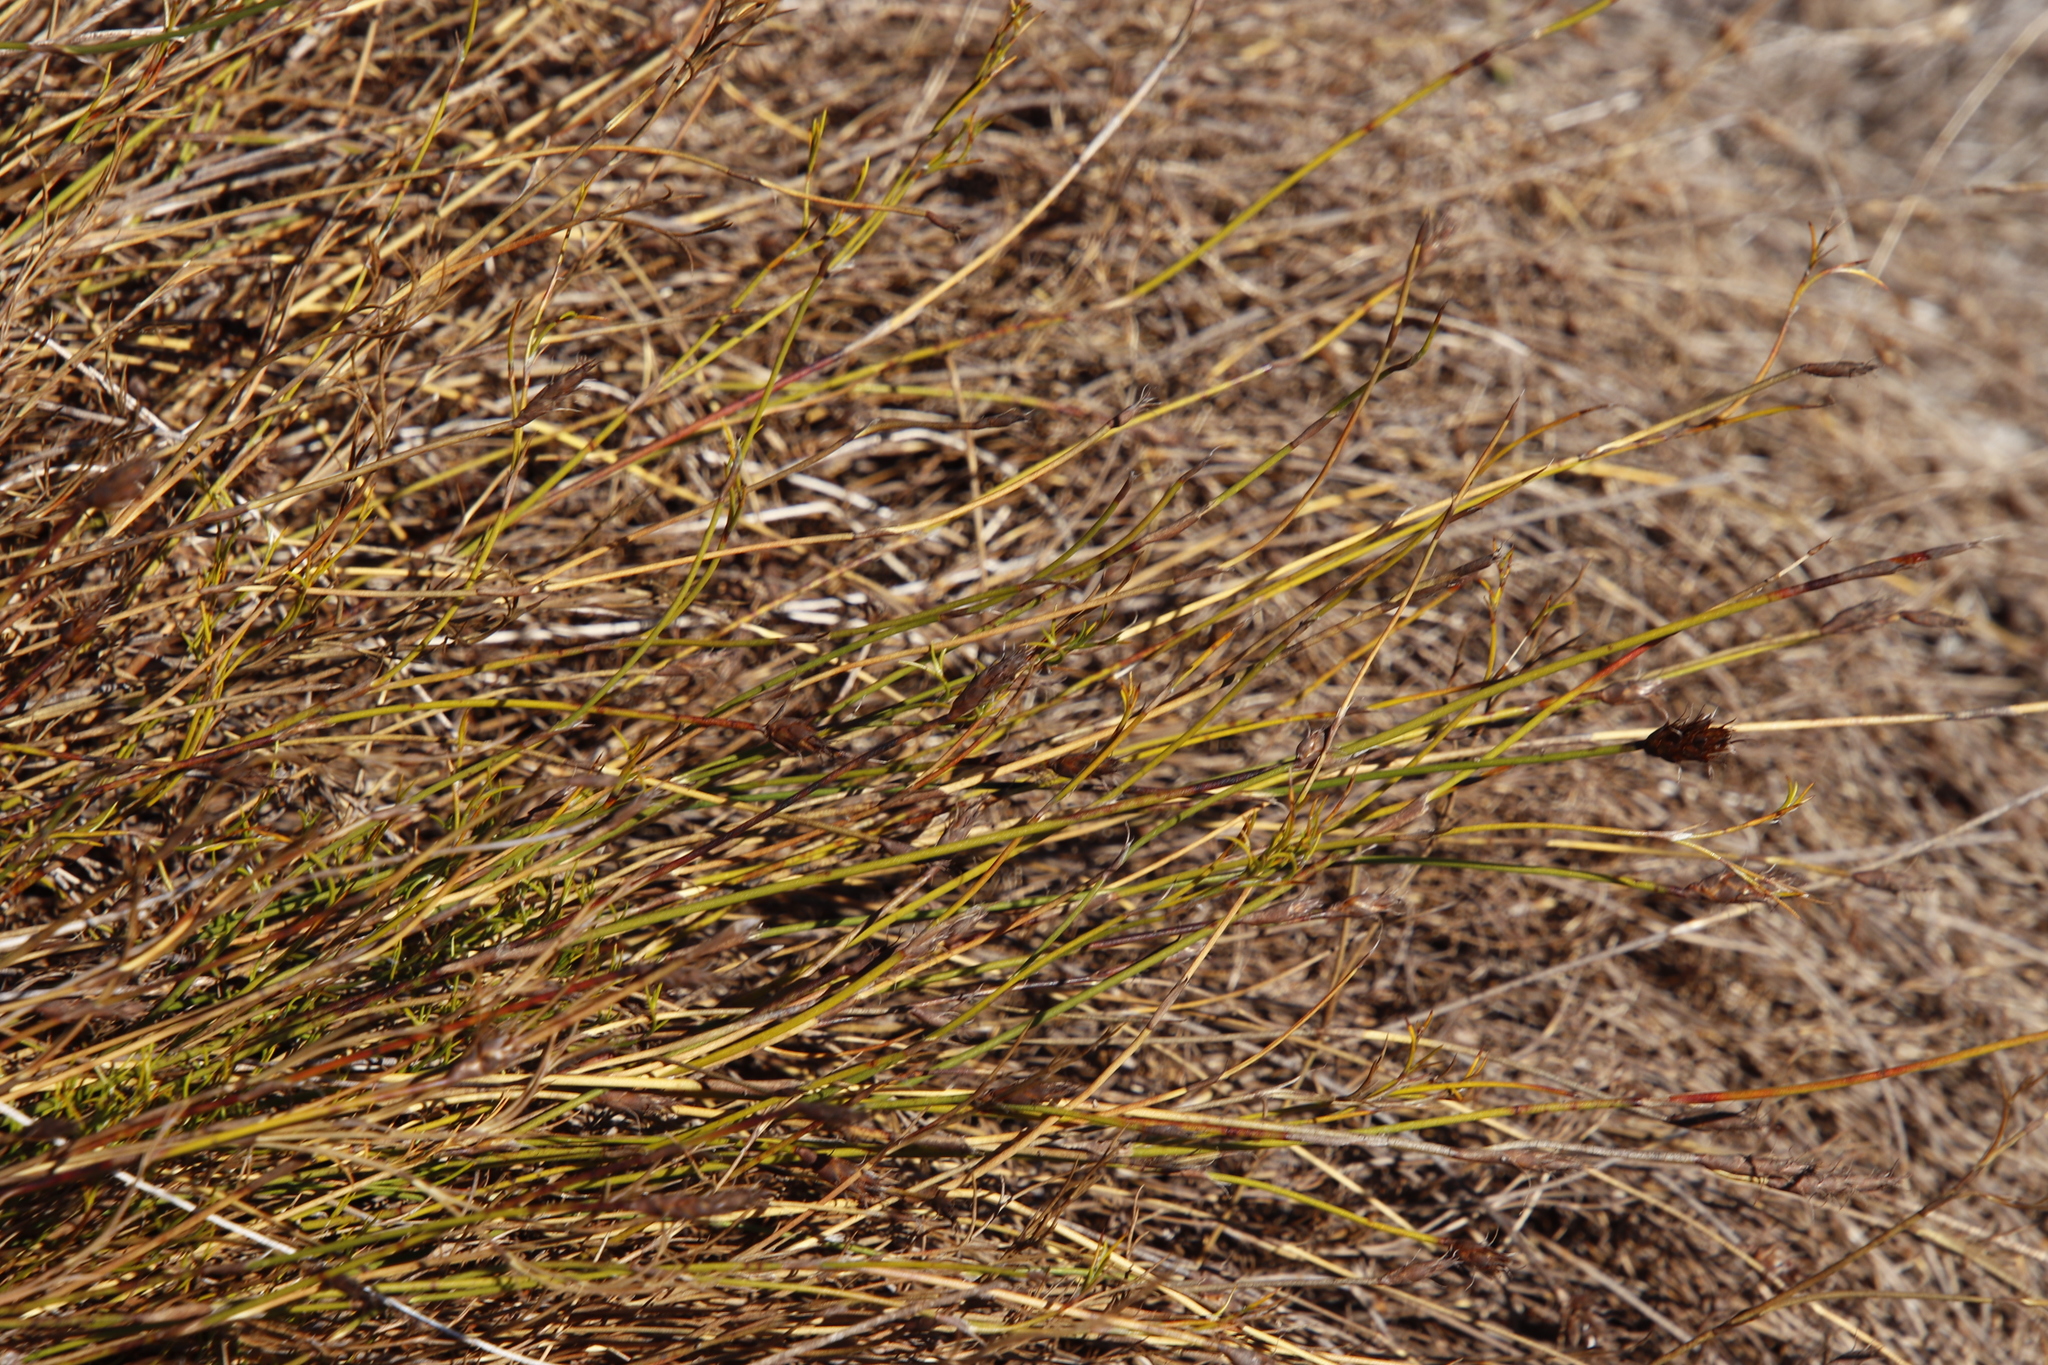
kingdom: Plantae
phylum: Tracheophyta
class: Liliopsida
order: Poales
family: Restionaceae
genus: Restio
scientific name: Restio capensis
